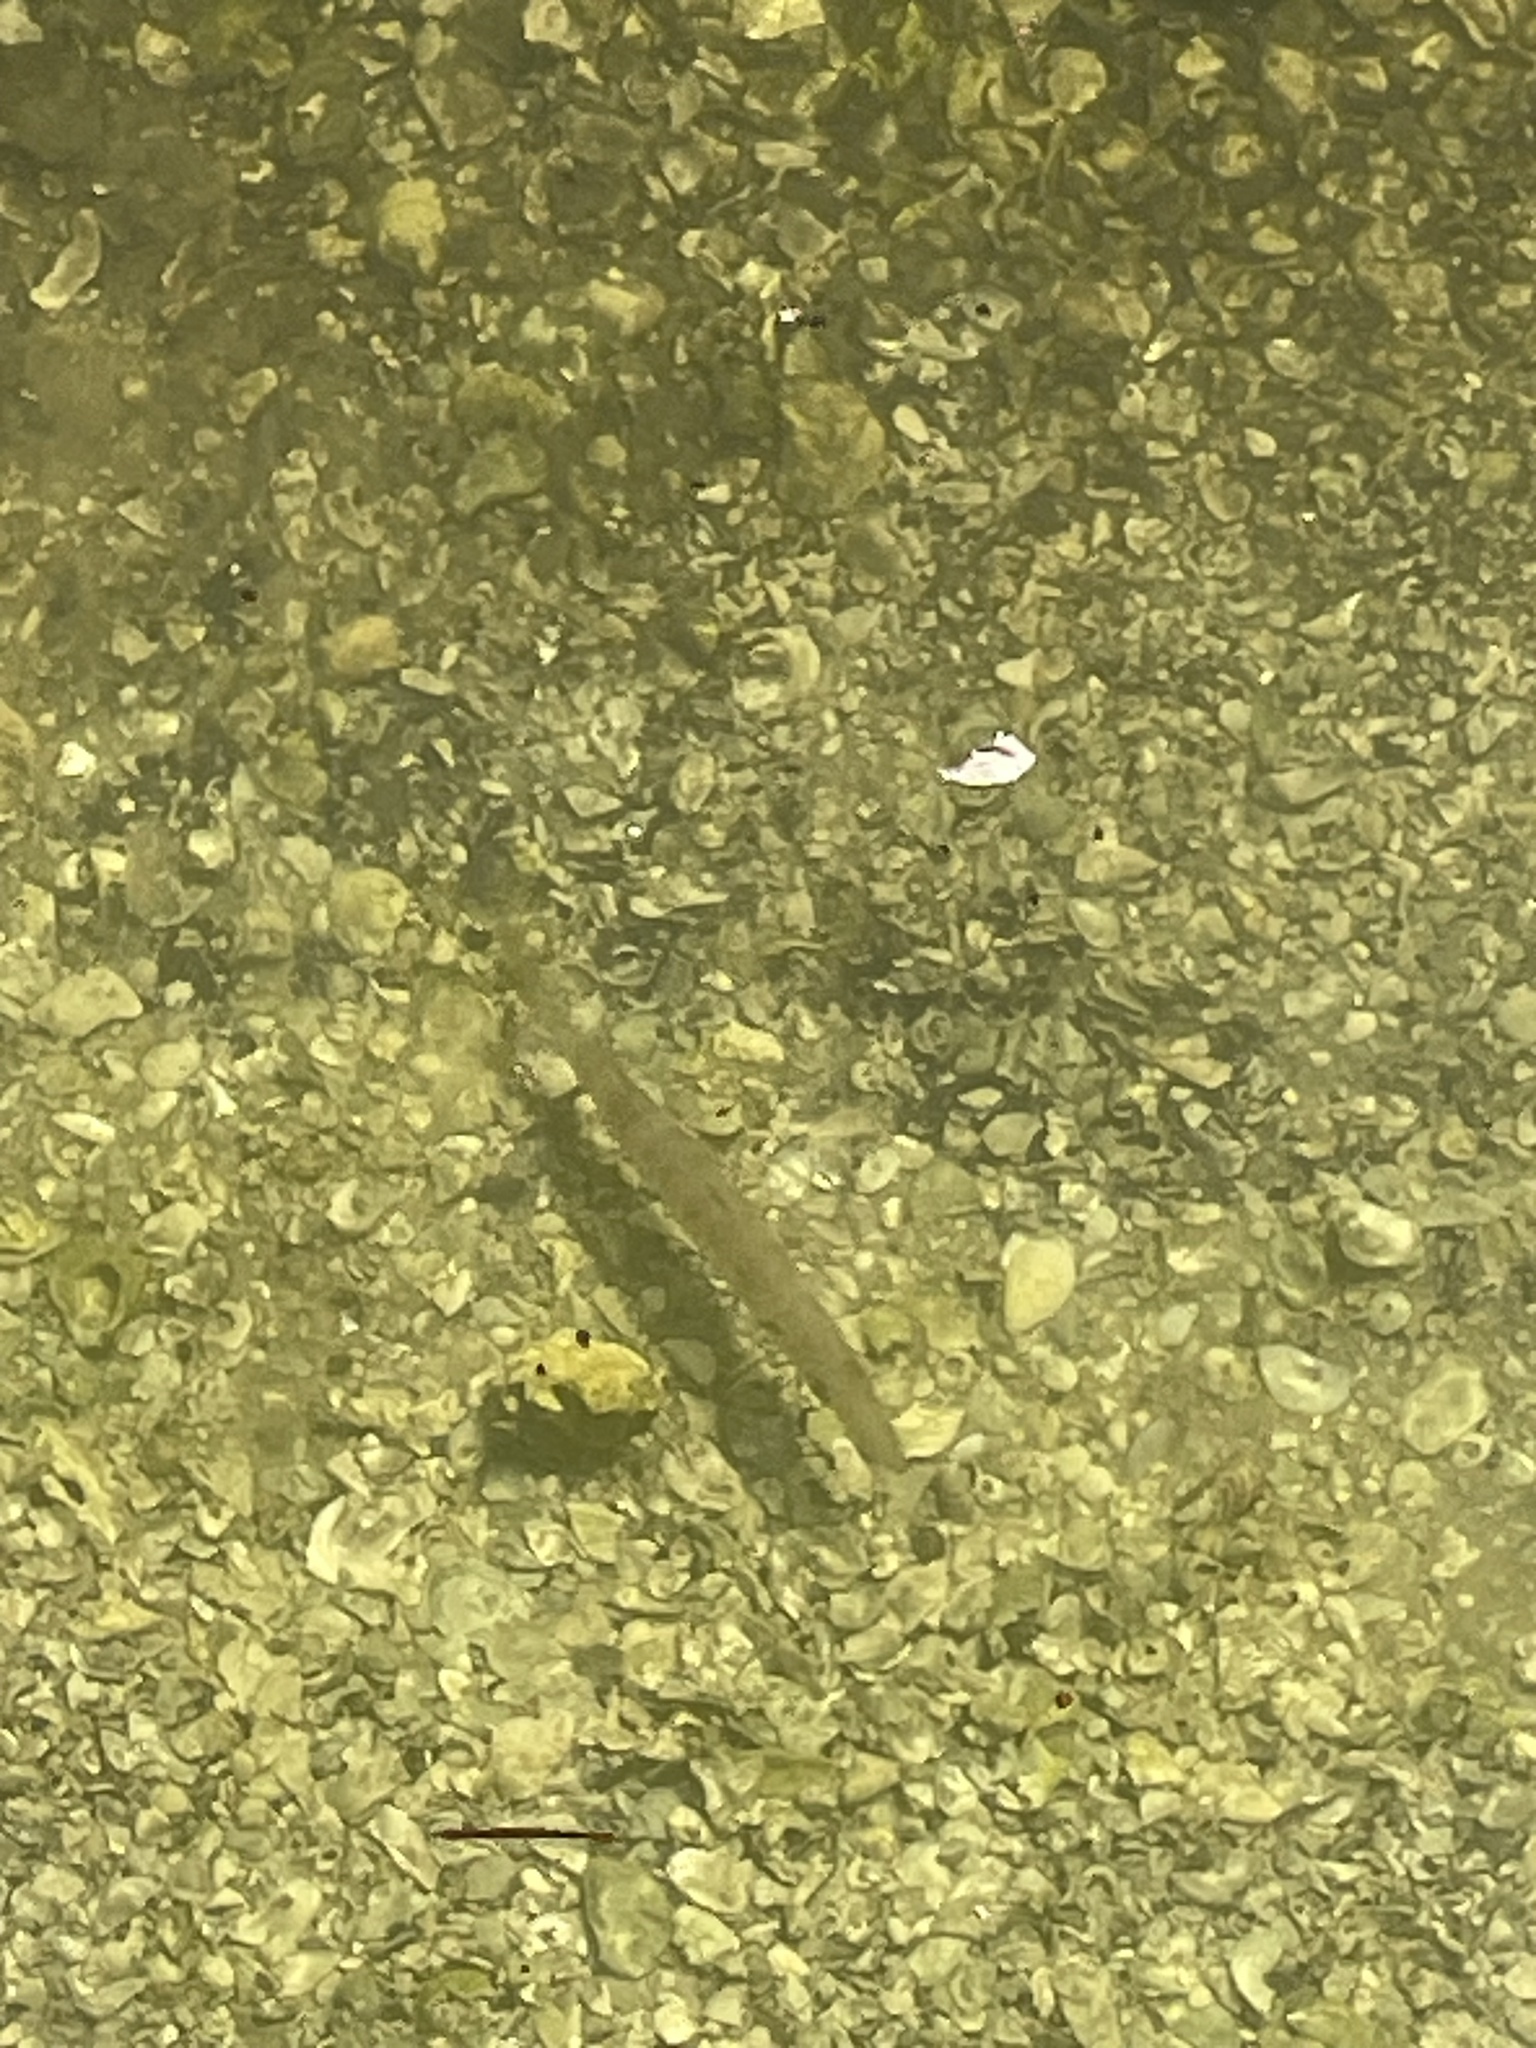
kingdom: Animalia
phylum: Chordata
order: Perciformes
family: Sphyraenidae
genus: Sphyraena
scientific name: Sphyraena barracuda
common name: Great barracuda
